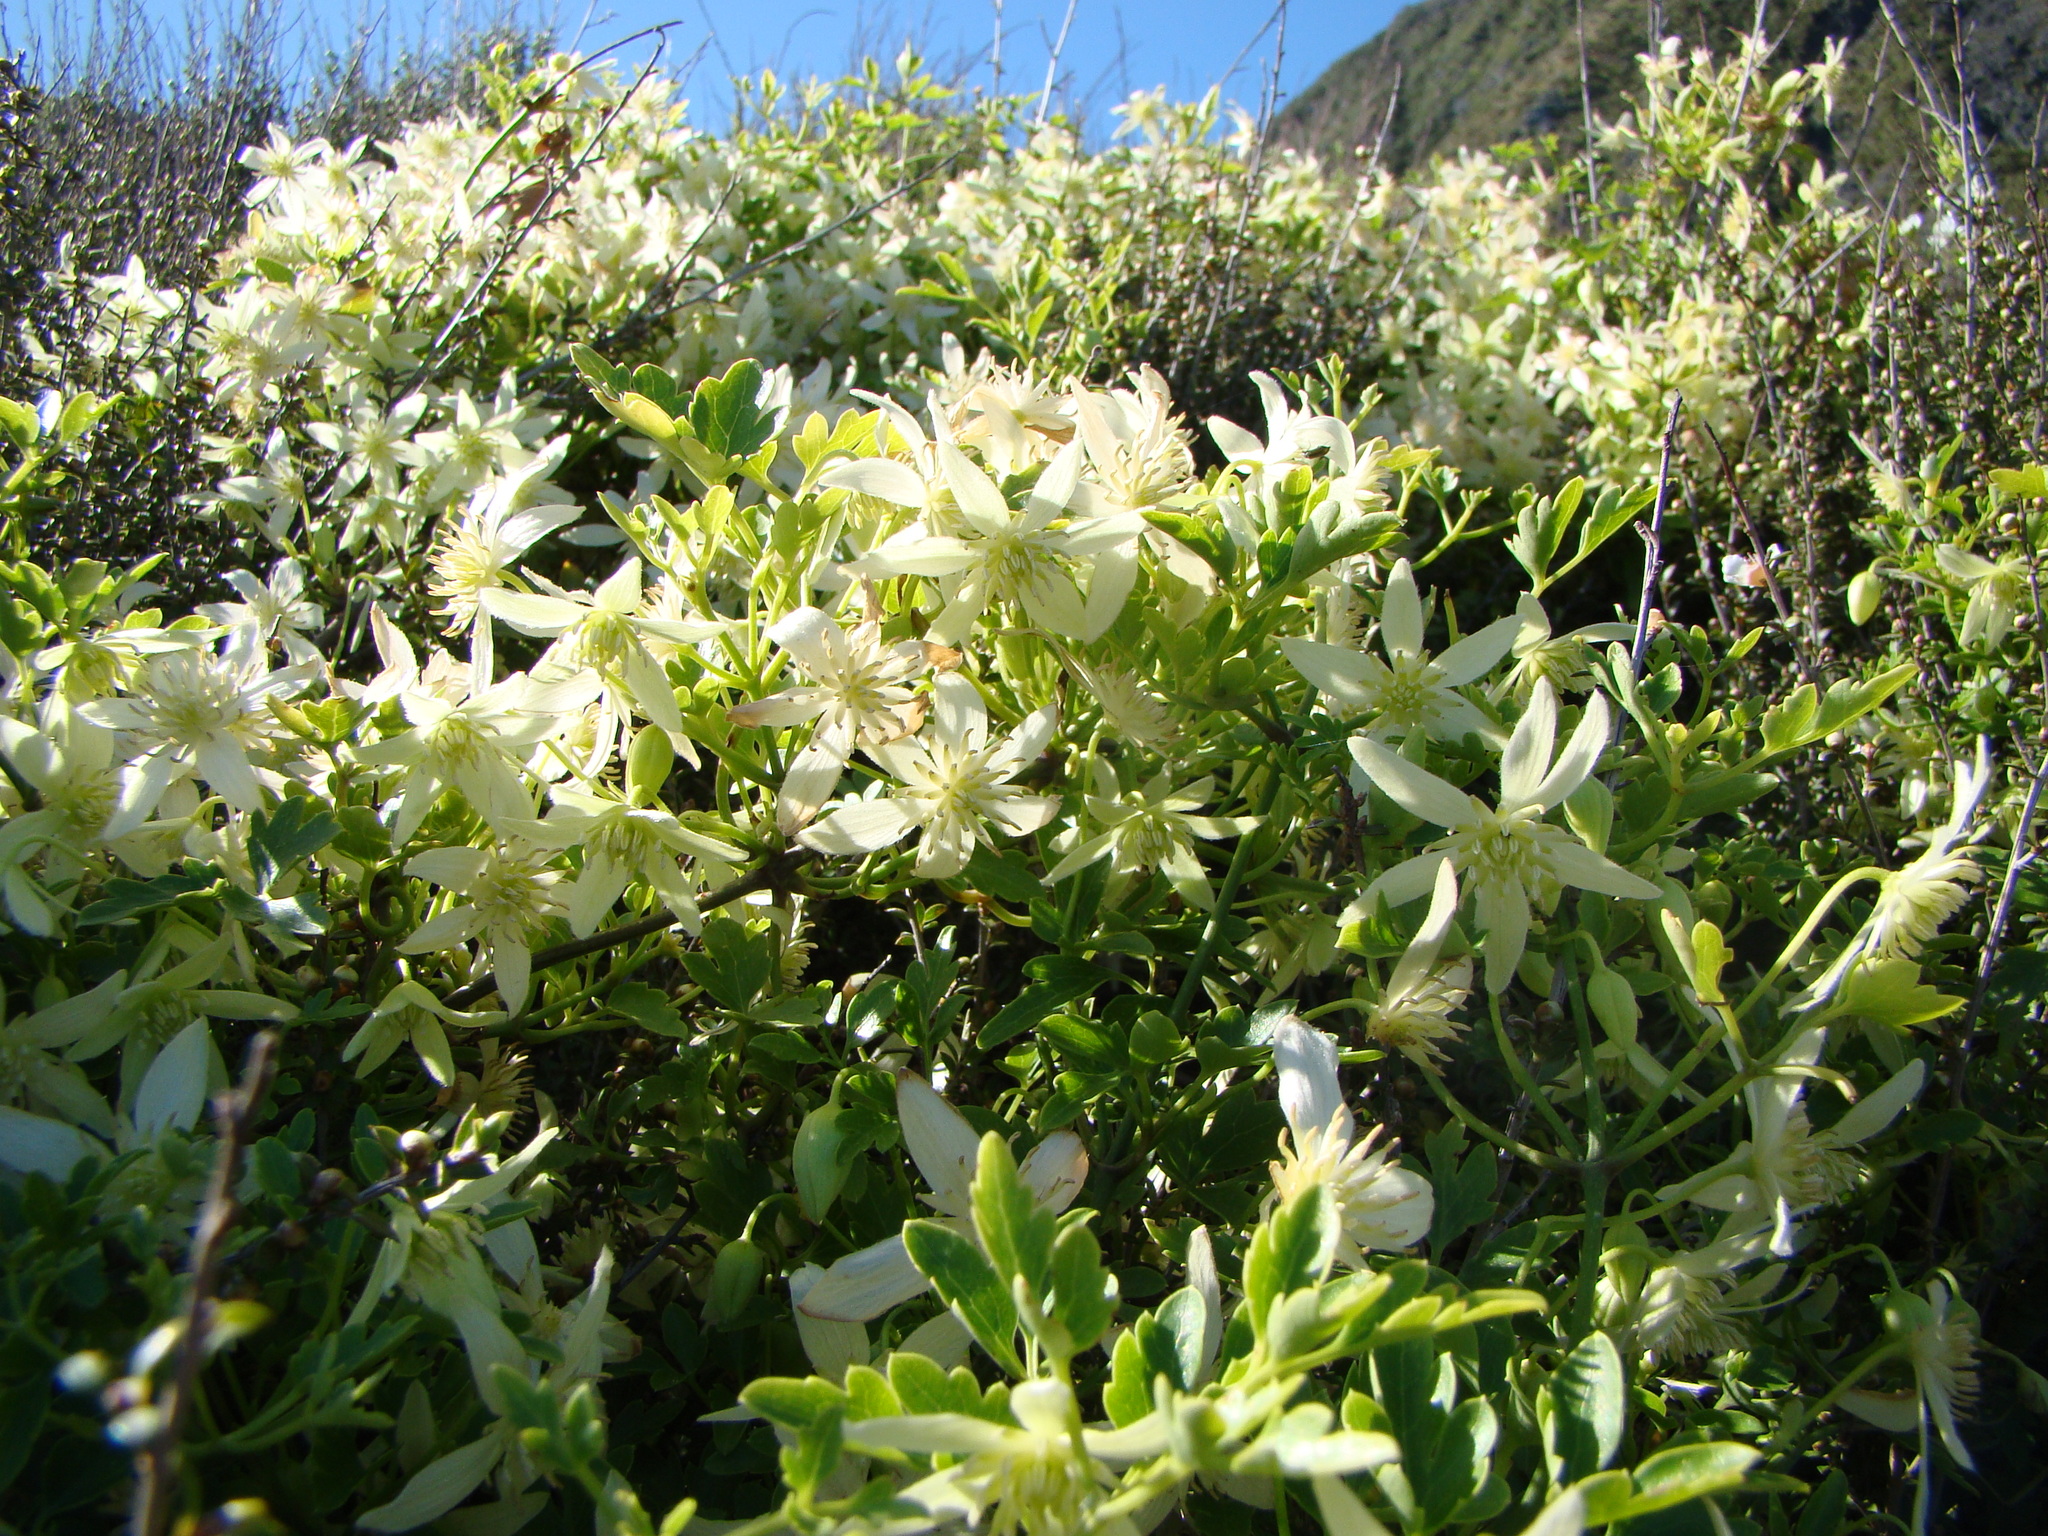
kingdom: Plantae
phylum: Tracheophyta
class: Magnoliopsida
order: Ranunculales
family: Ranunculaceae
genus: Clematis
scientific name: Clematis forsteri
